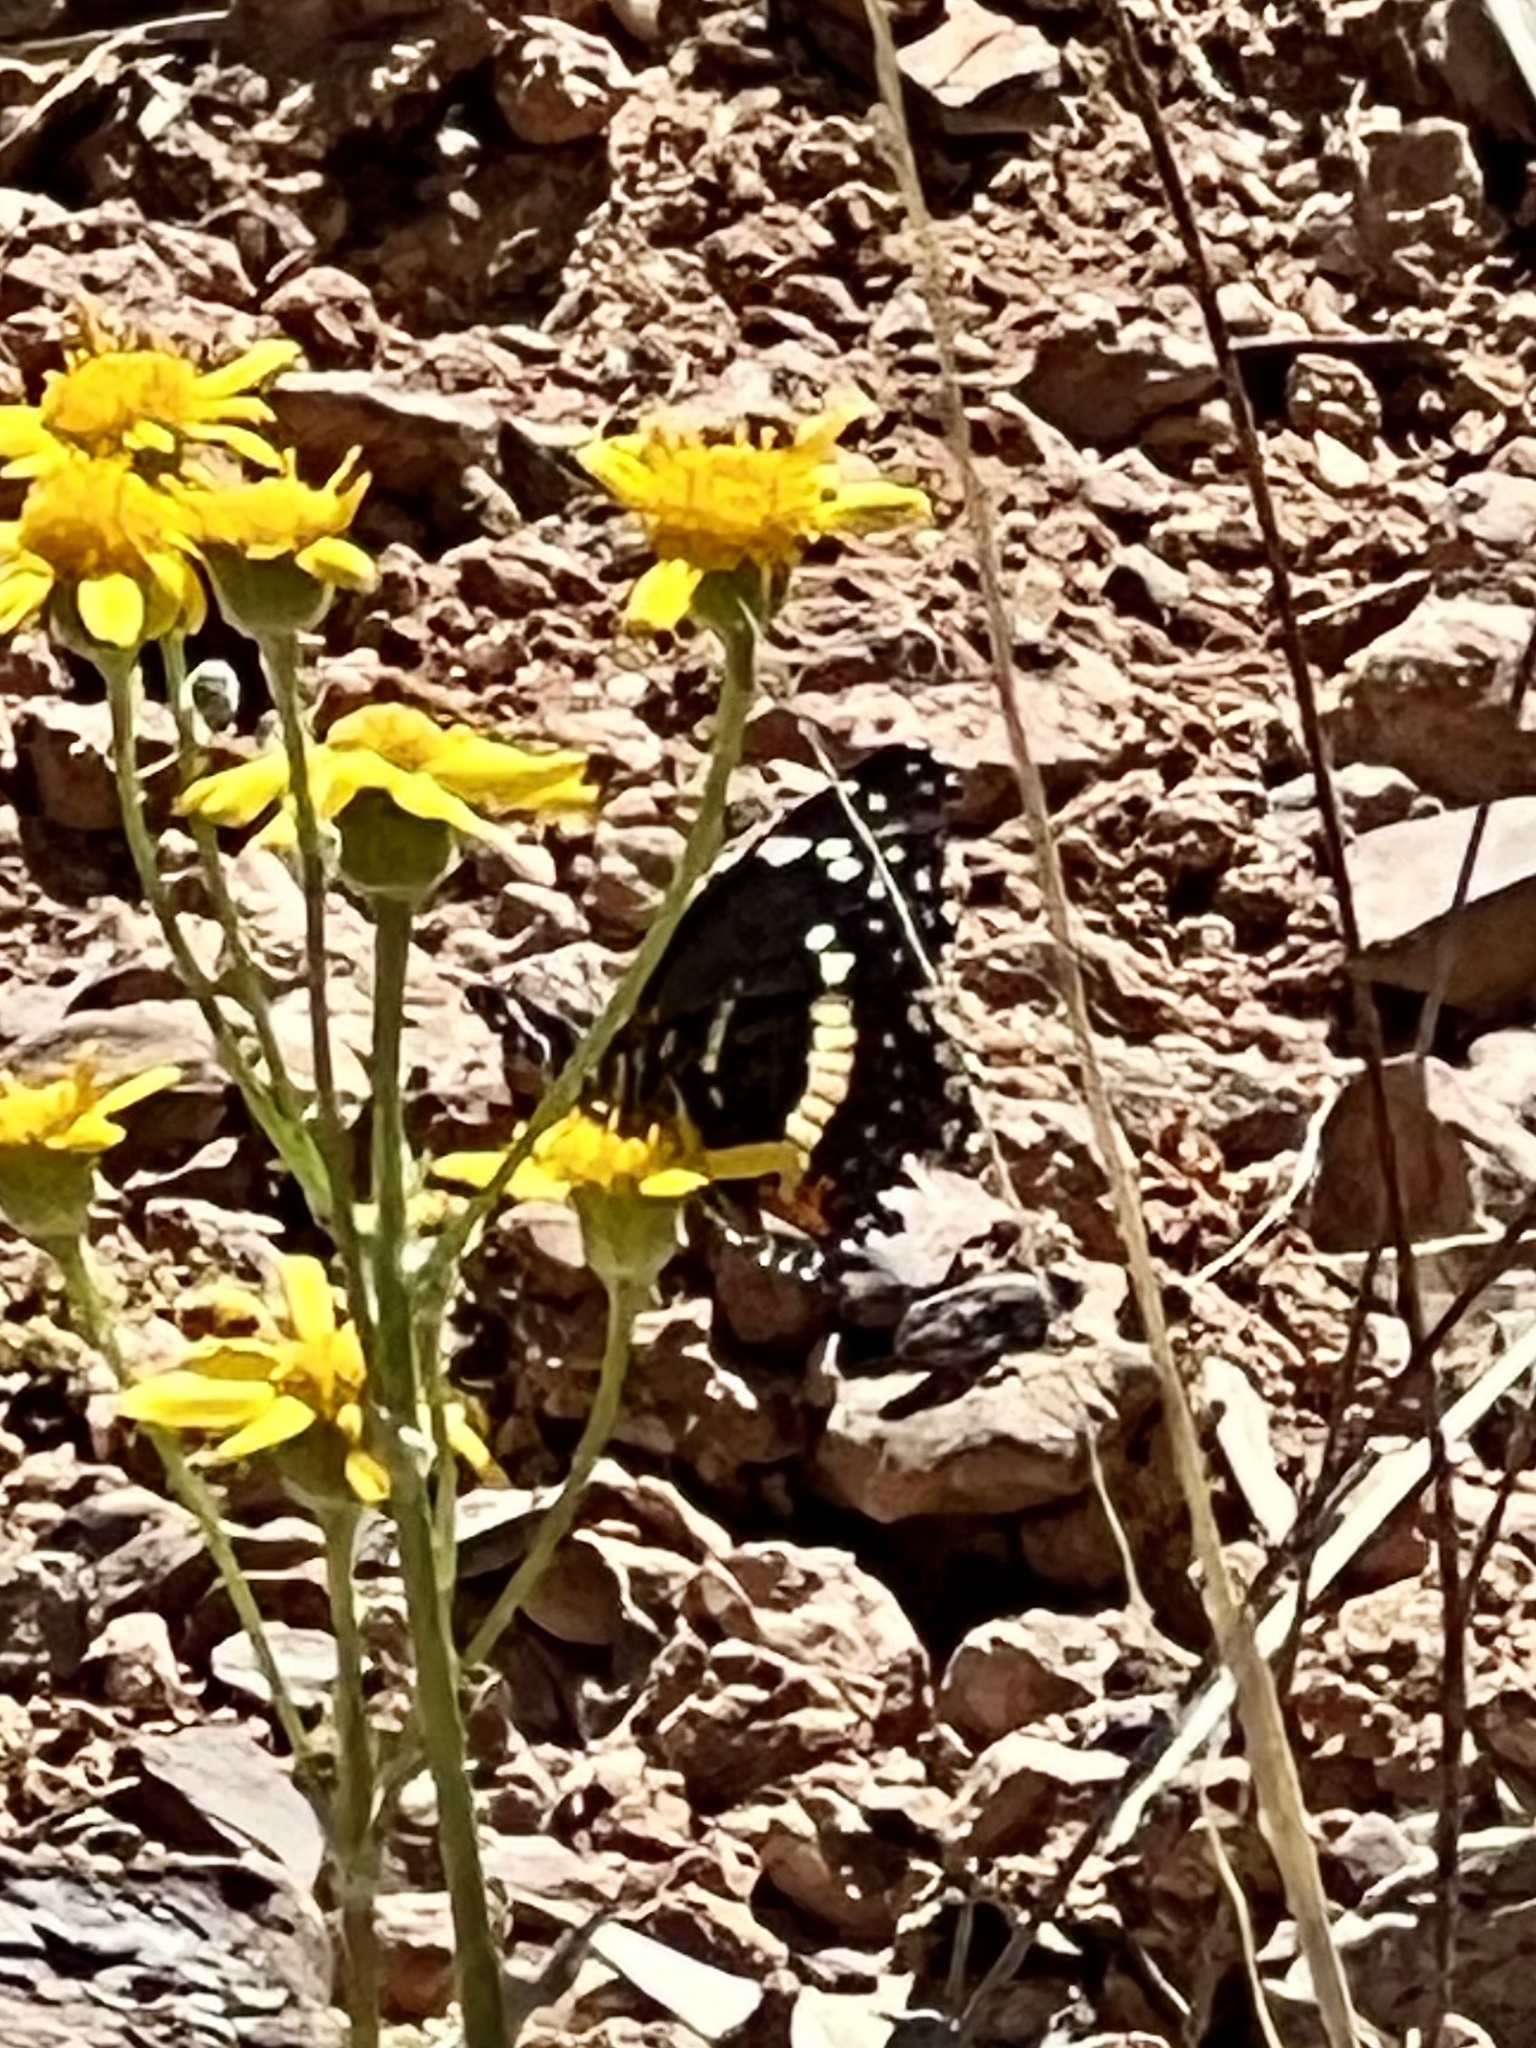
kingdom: Animalia
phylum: Arthropoda
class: Insecta
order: Lepidoptera
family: Nymphalidae
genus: Chlosyne
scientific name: Chlosyne lacinia
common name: Bordered patch
